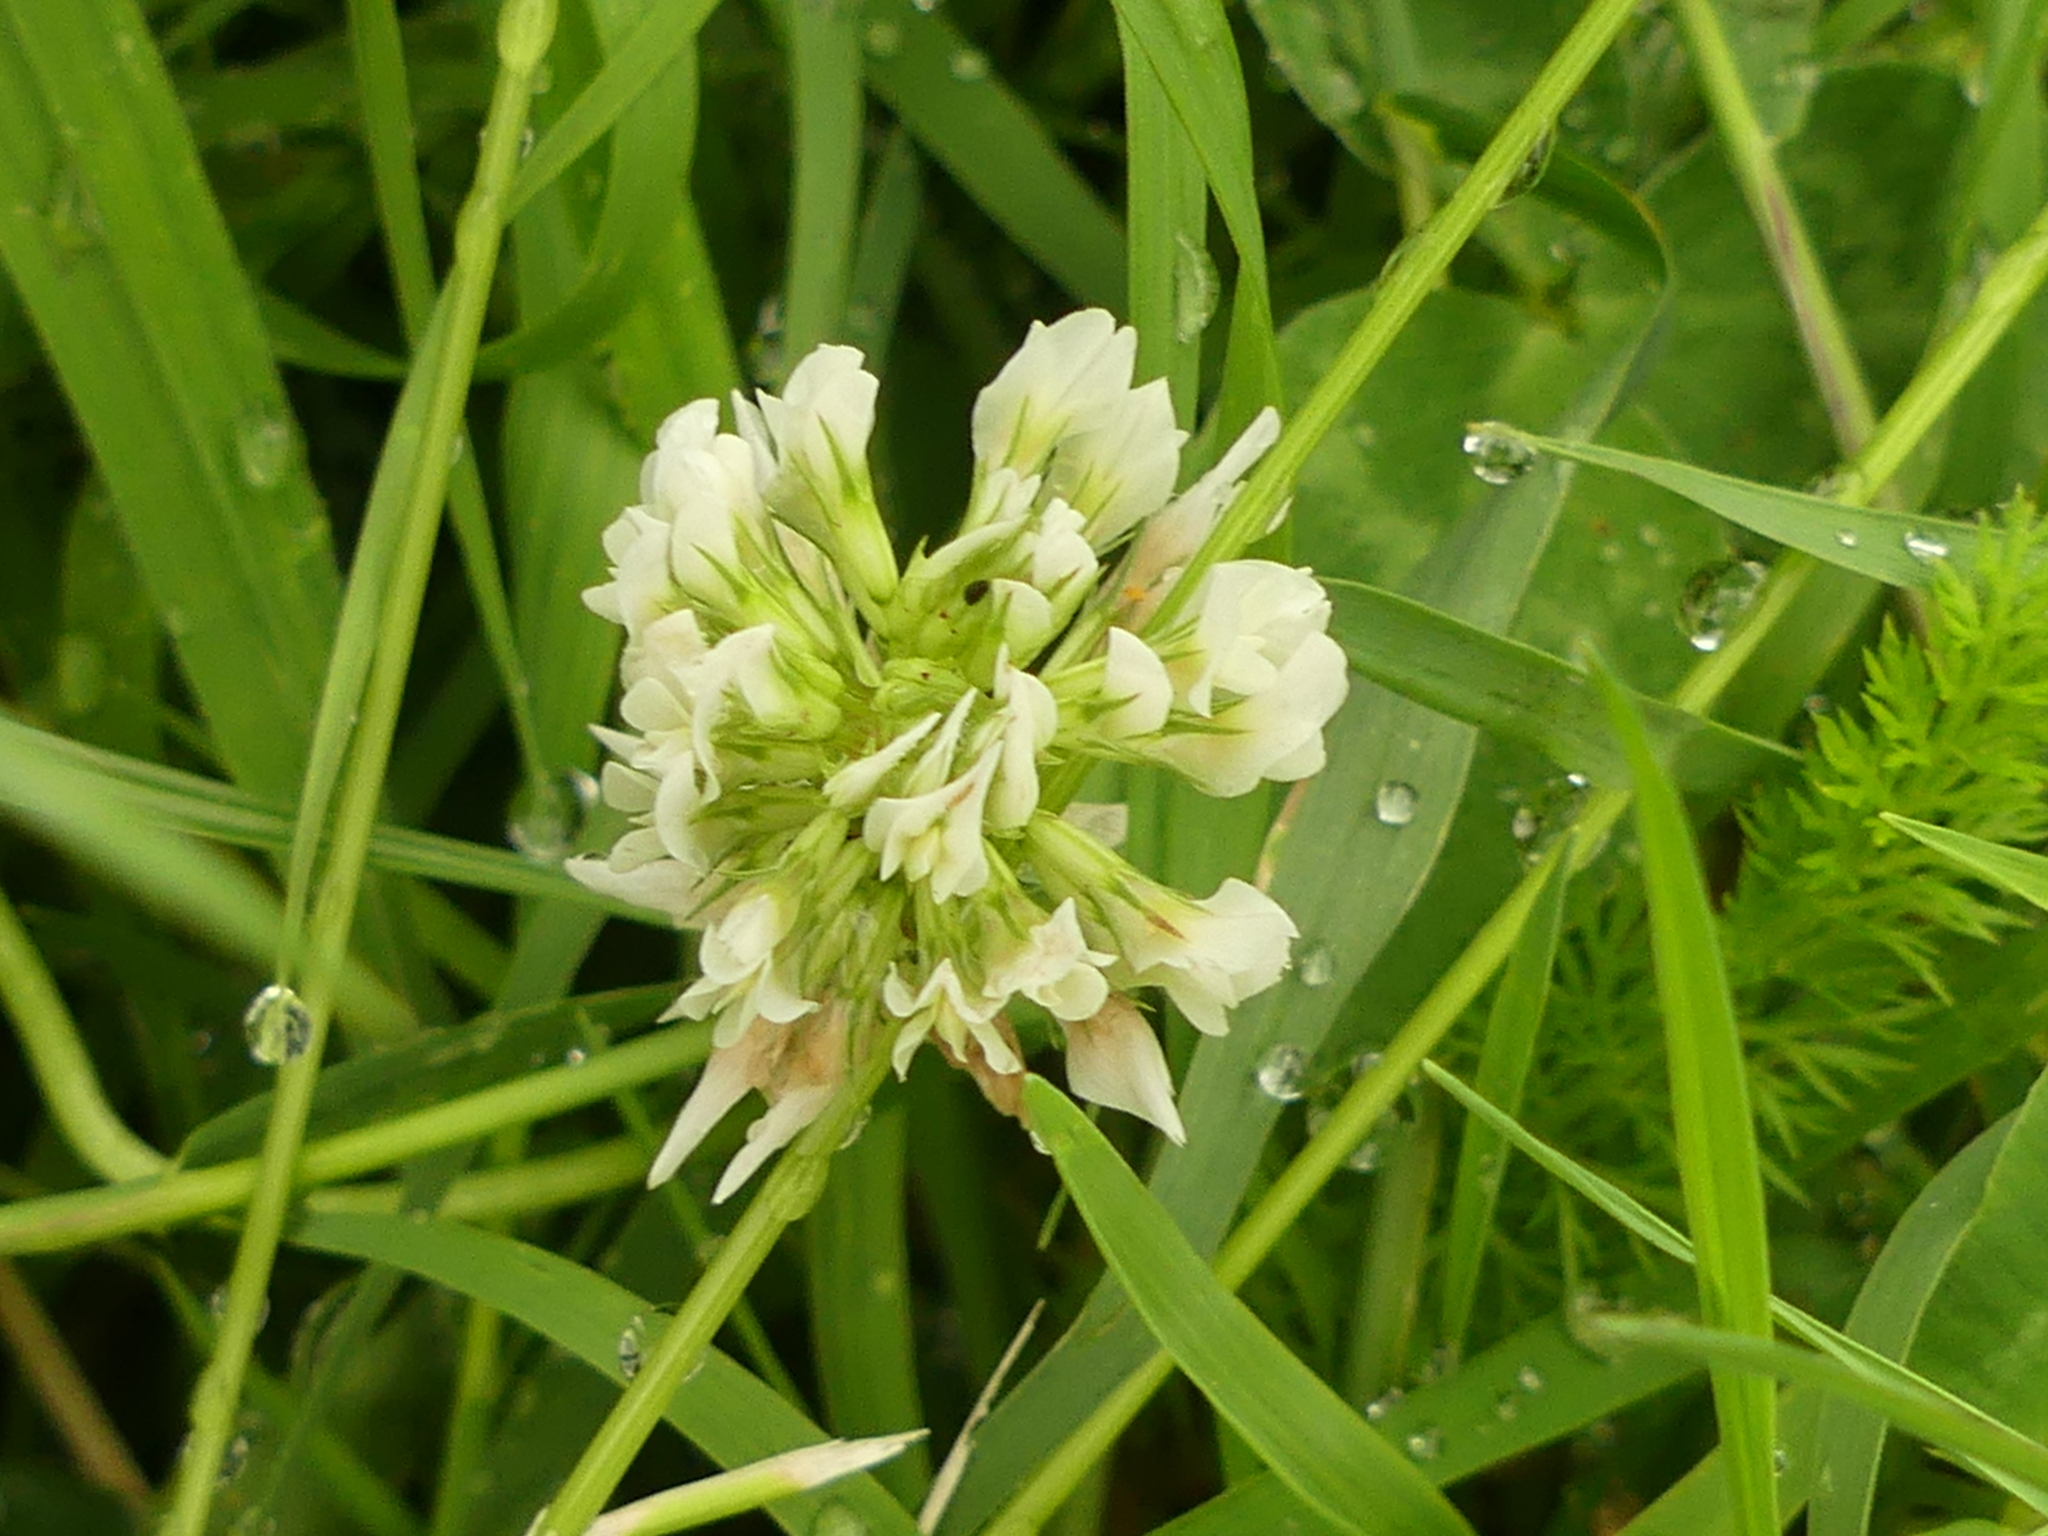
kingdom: Plantae
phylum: Tracheophyta
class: Magnoliopsida
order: Fabales
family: Fabaceae
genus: Trifolium
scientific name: Trifolium repens
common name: White clover
